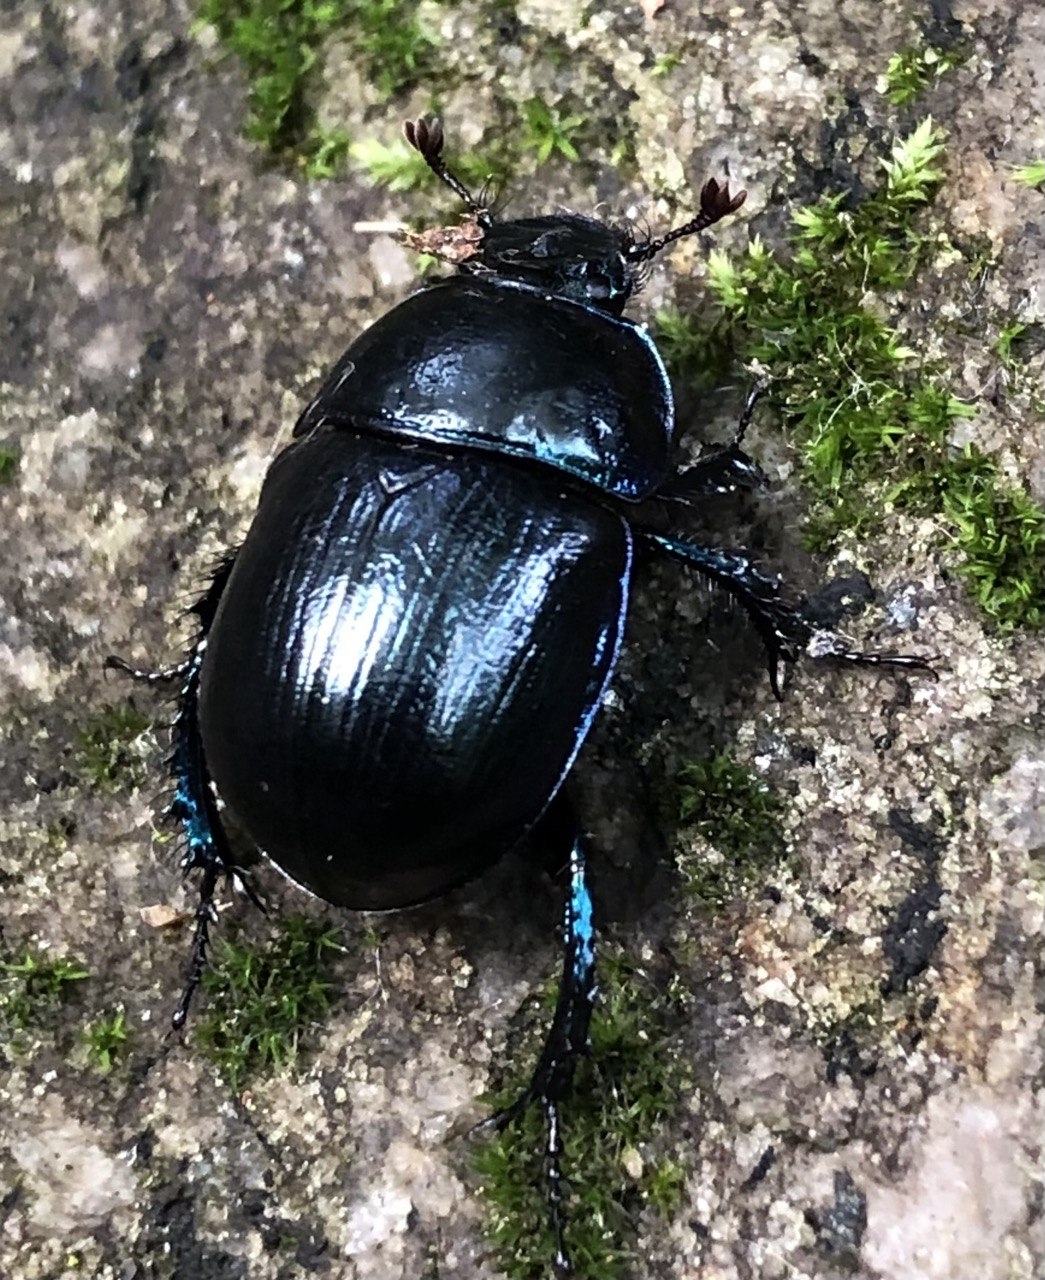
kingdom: Animalia
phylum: Arthropoda
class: Insecta
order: Coleoptera
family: Geotrupidae
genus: Anoplotrupes
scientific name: Anoplotrupes stercorosus
